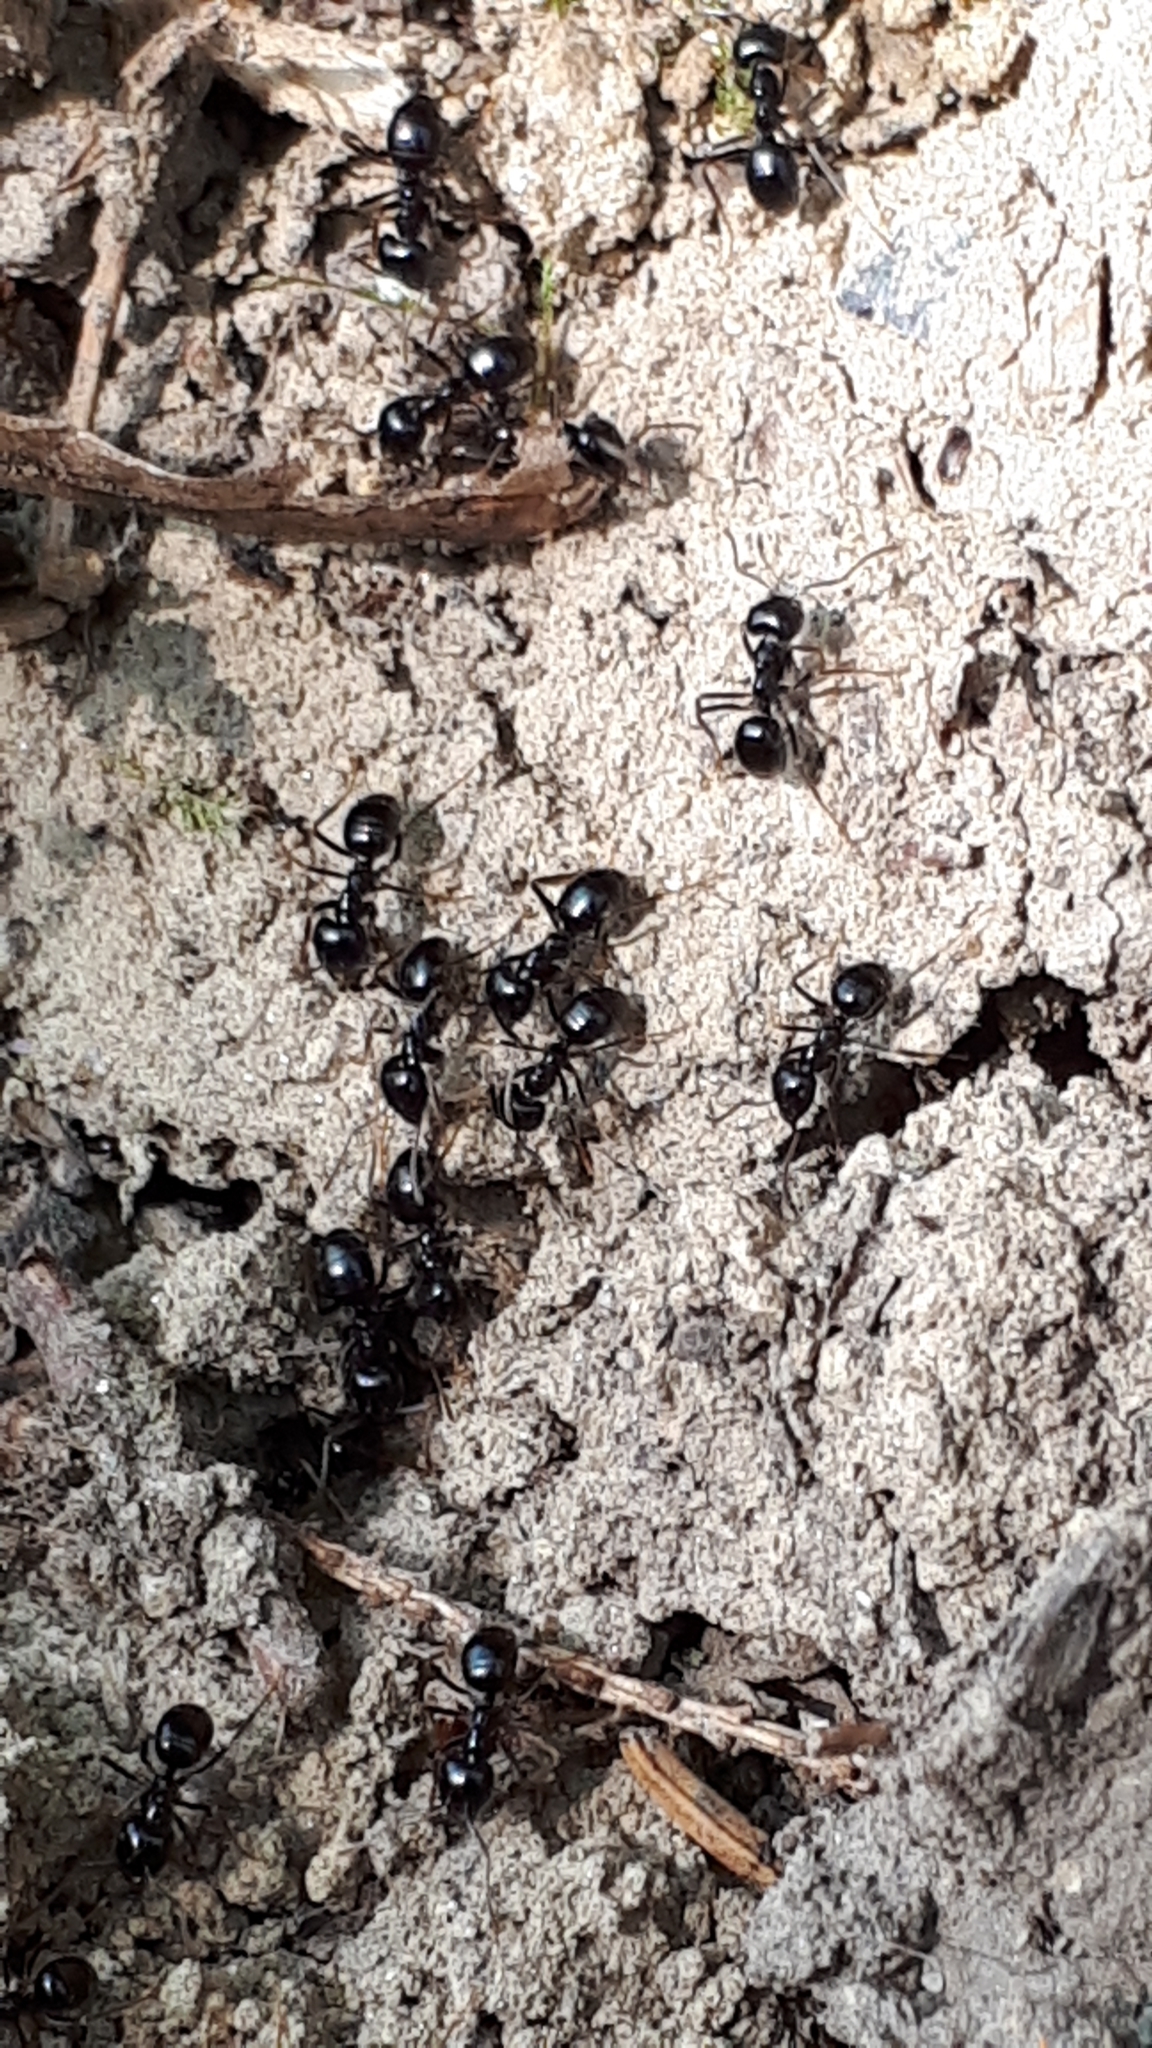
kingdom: Animalia
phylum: Arthropoda
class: Insecta
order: Hymenoptera
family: Formicidae
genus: Lasius
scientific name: Lasius fuliginosus
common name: Jet ant
